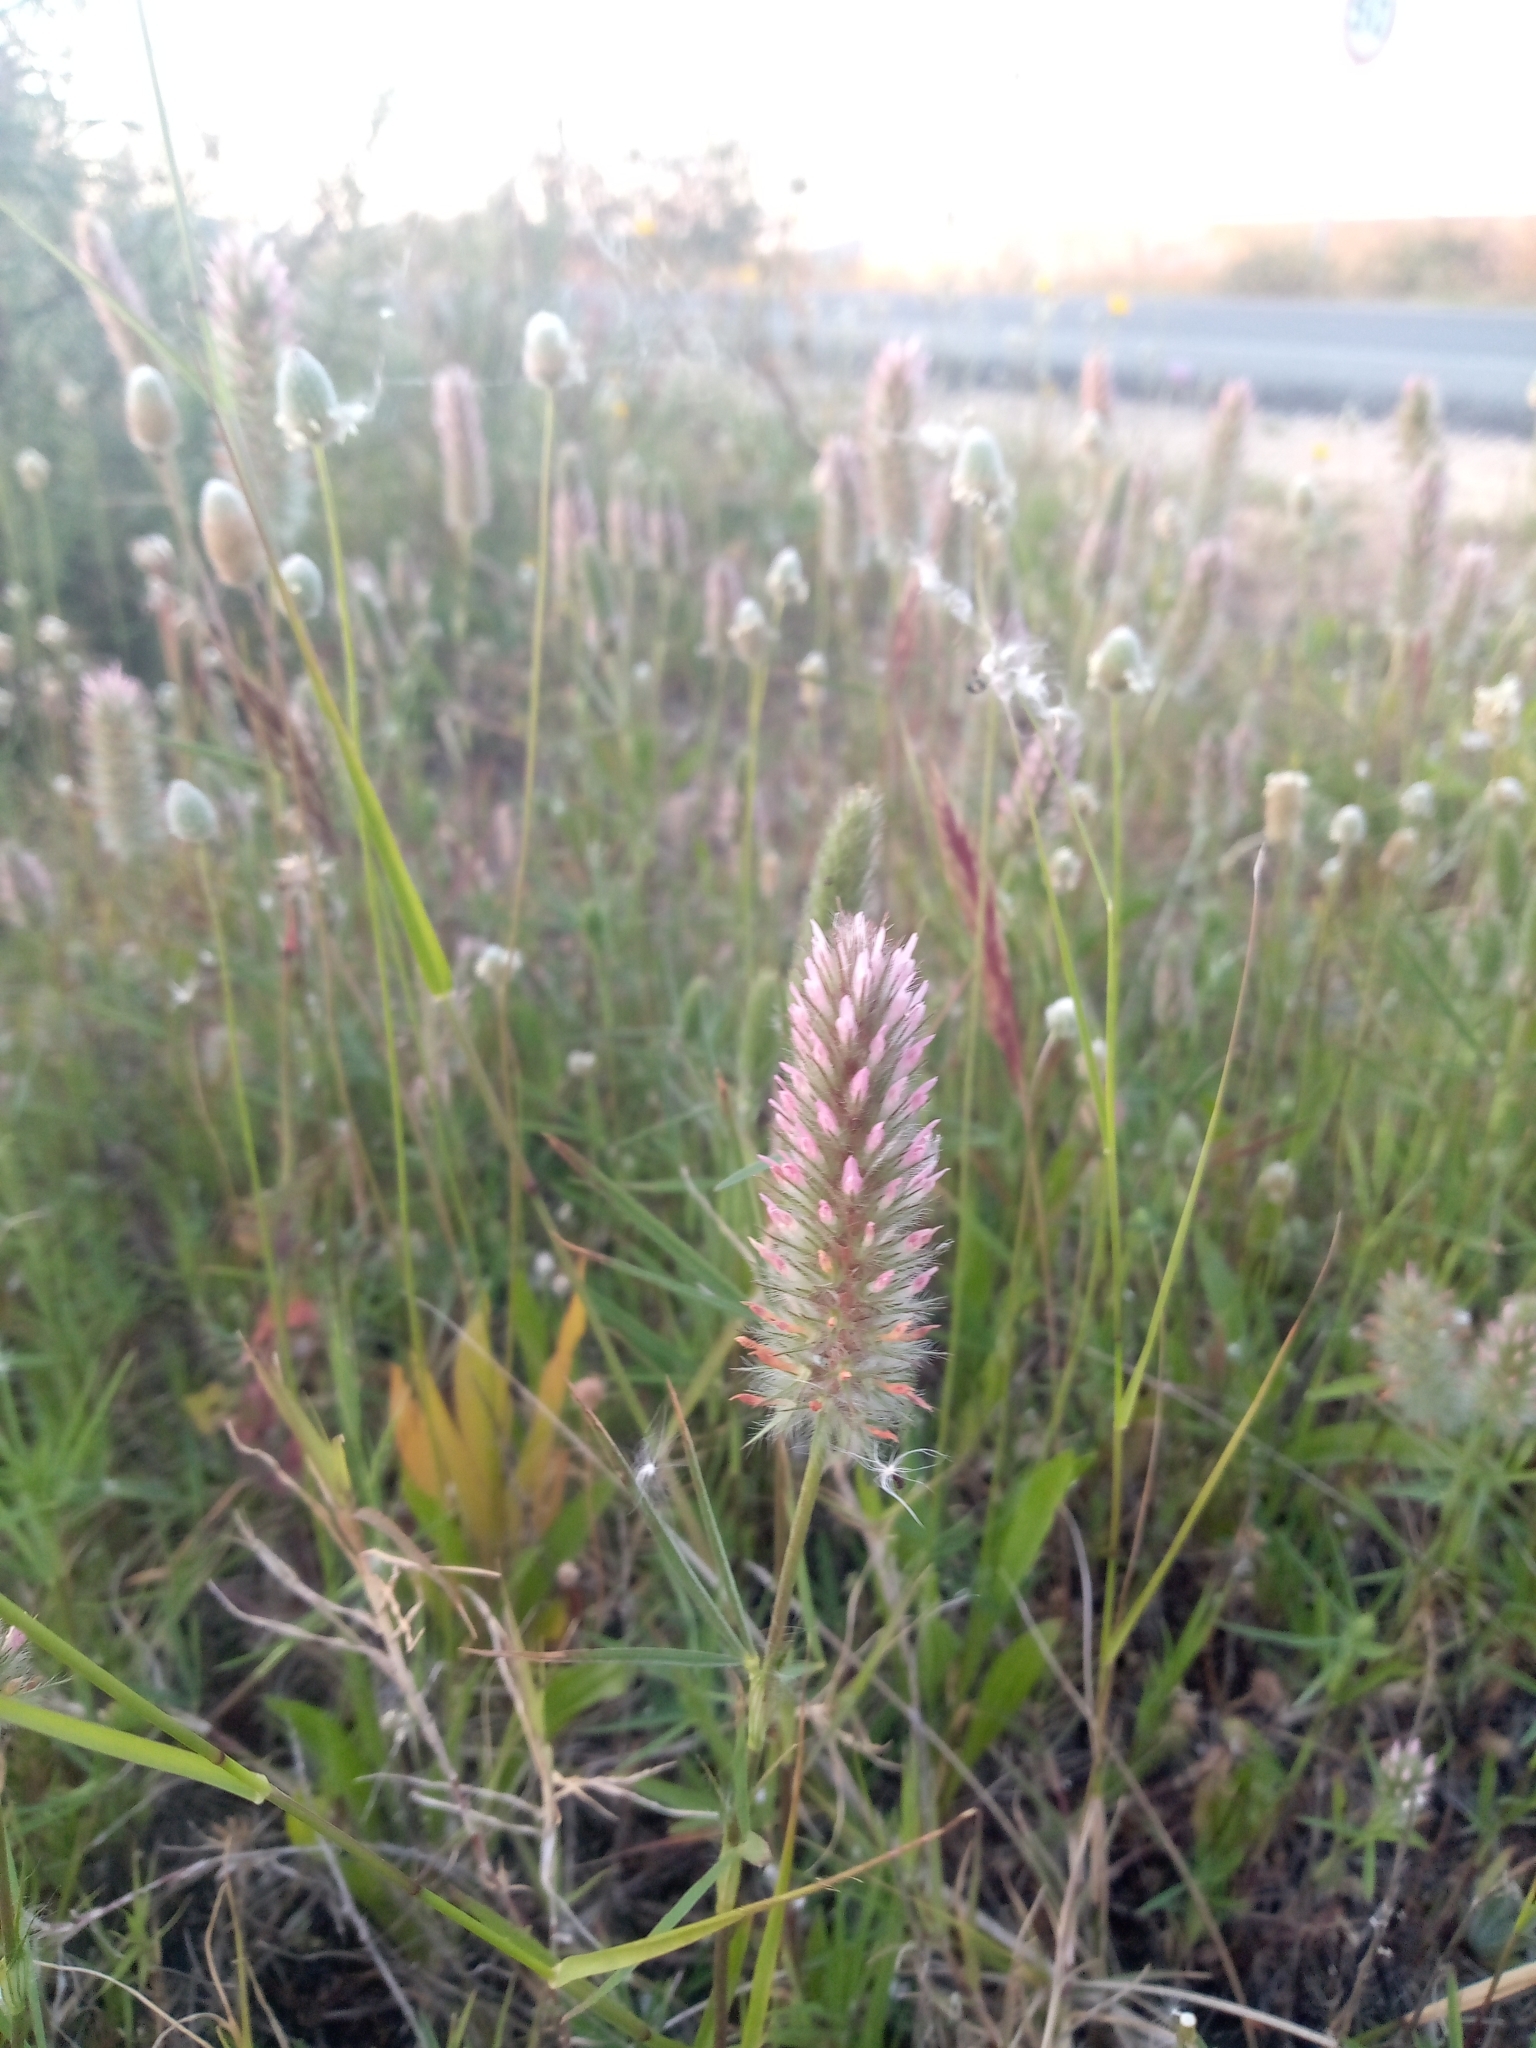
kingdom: Plantae
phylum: Tracheophyta
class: Magnoliopsida
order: Fabales
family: Fabaceae
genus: Trifolium
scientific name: Trifolium angustifolium
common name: Narrow clover
